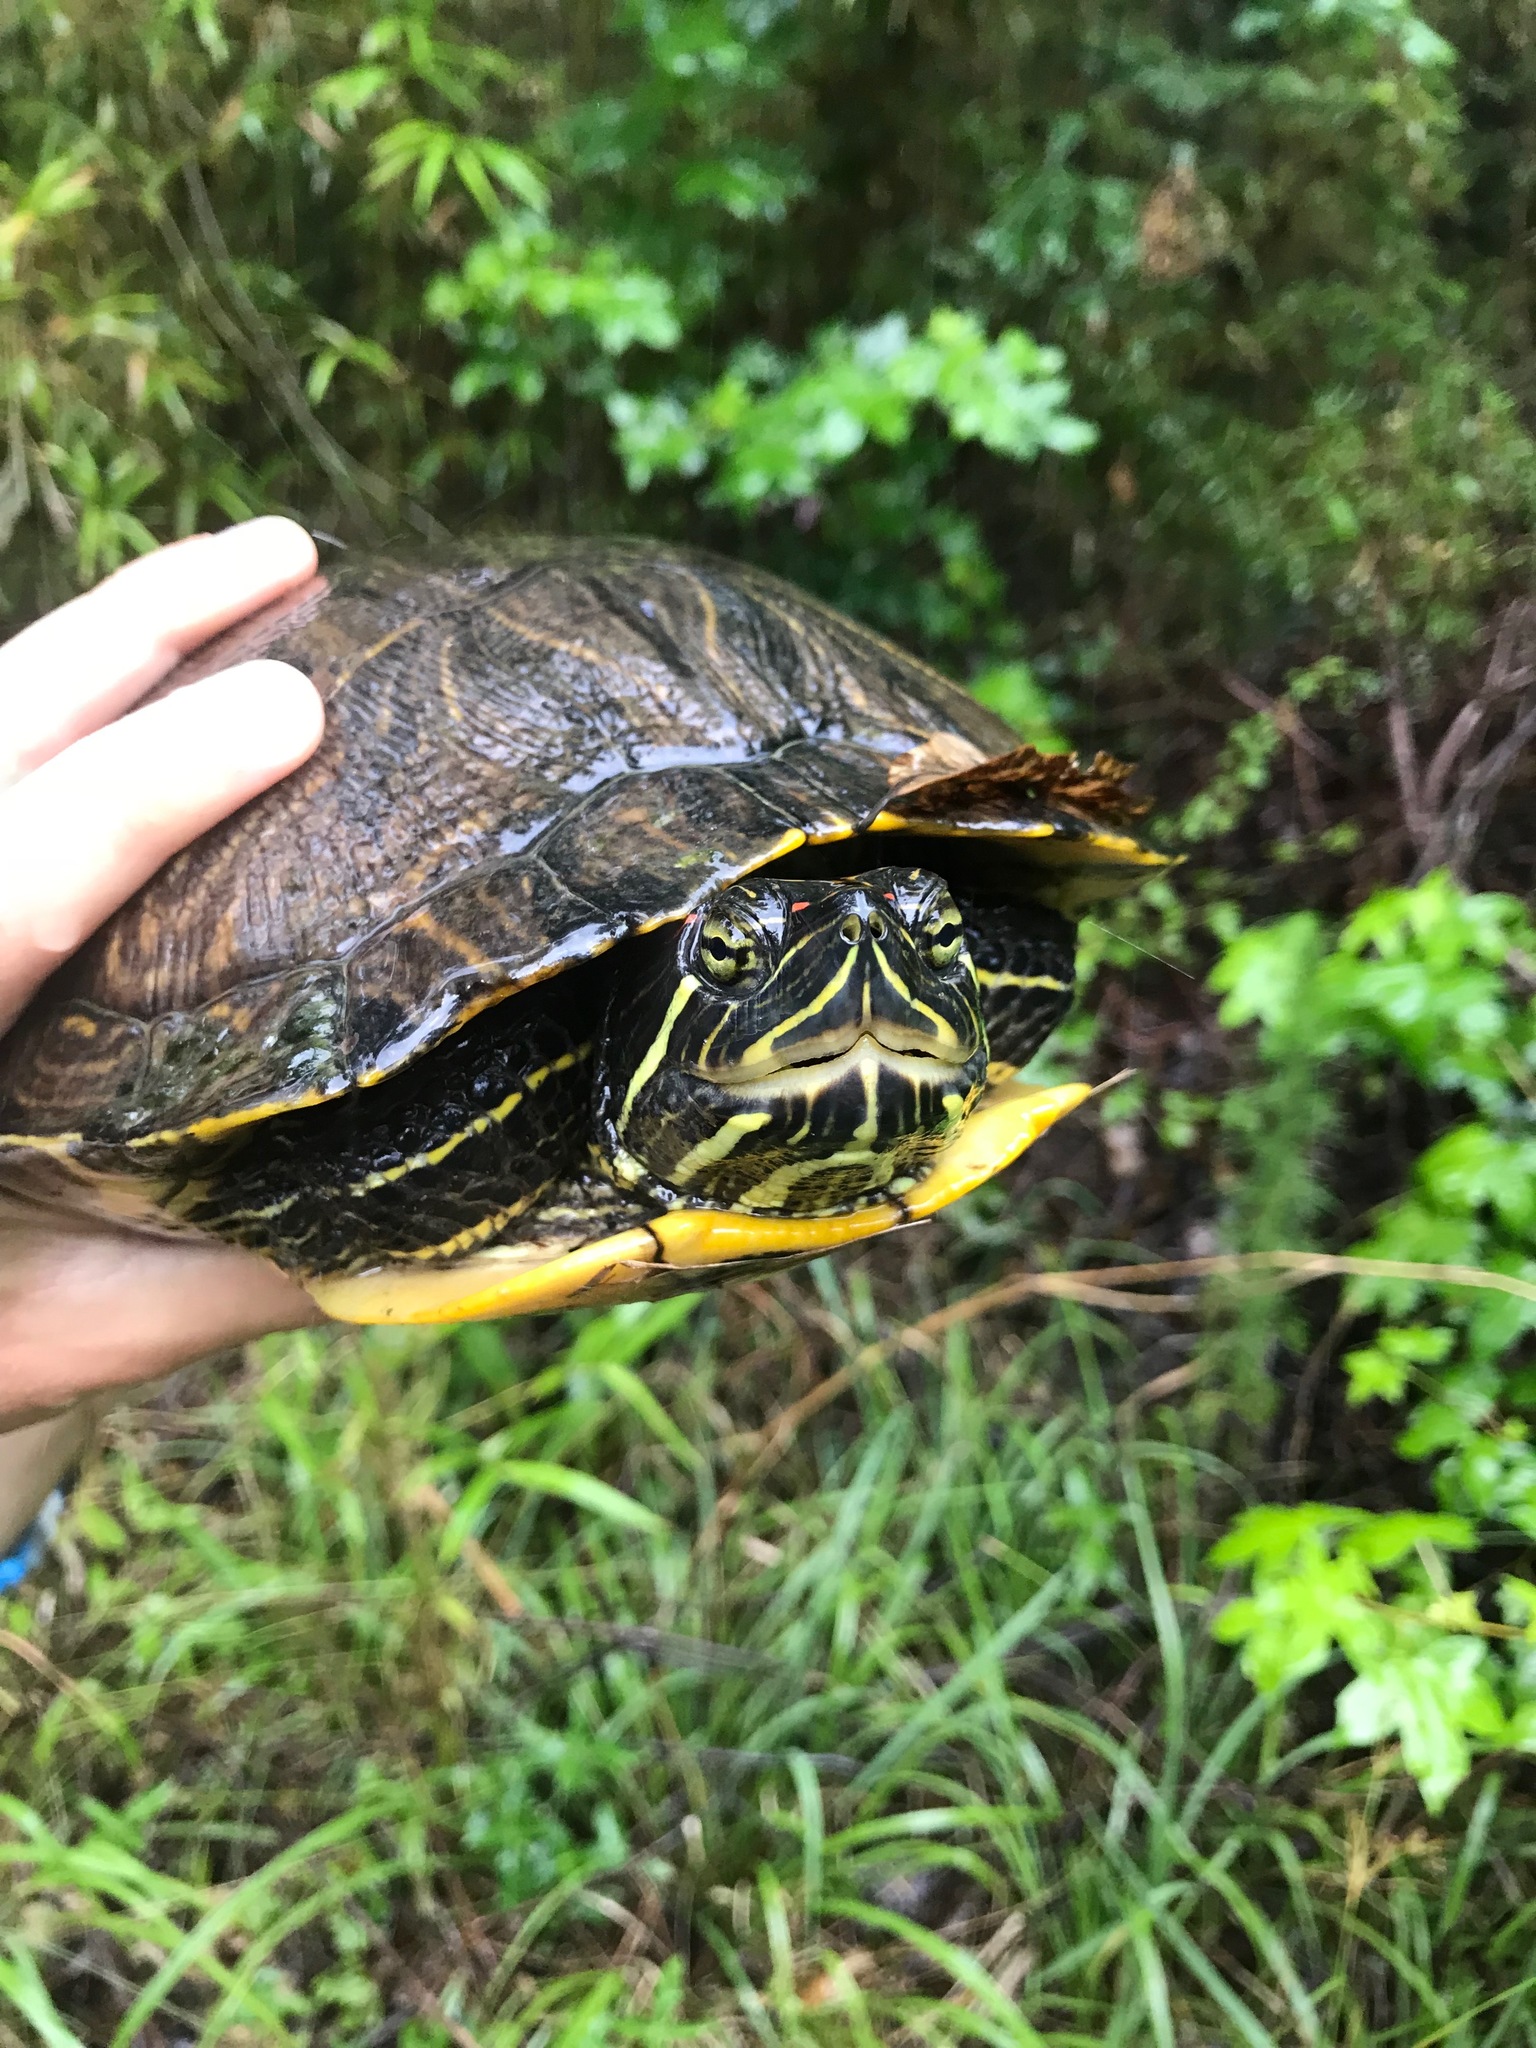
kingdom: Animalia
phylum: Chordata
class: Testudines
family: Emydidae
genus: Trachemys
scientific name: Trachemys scripta
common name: Slider
